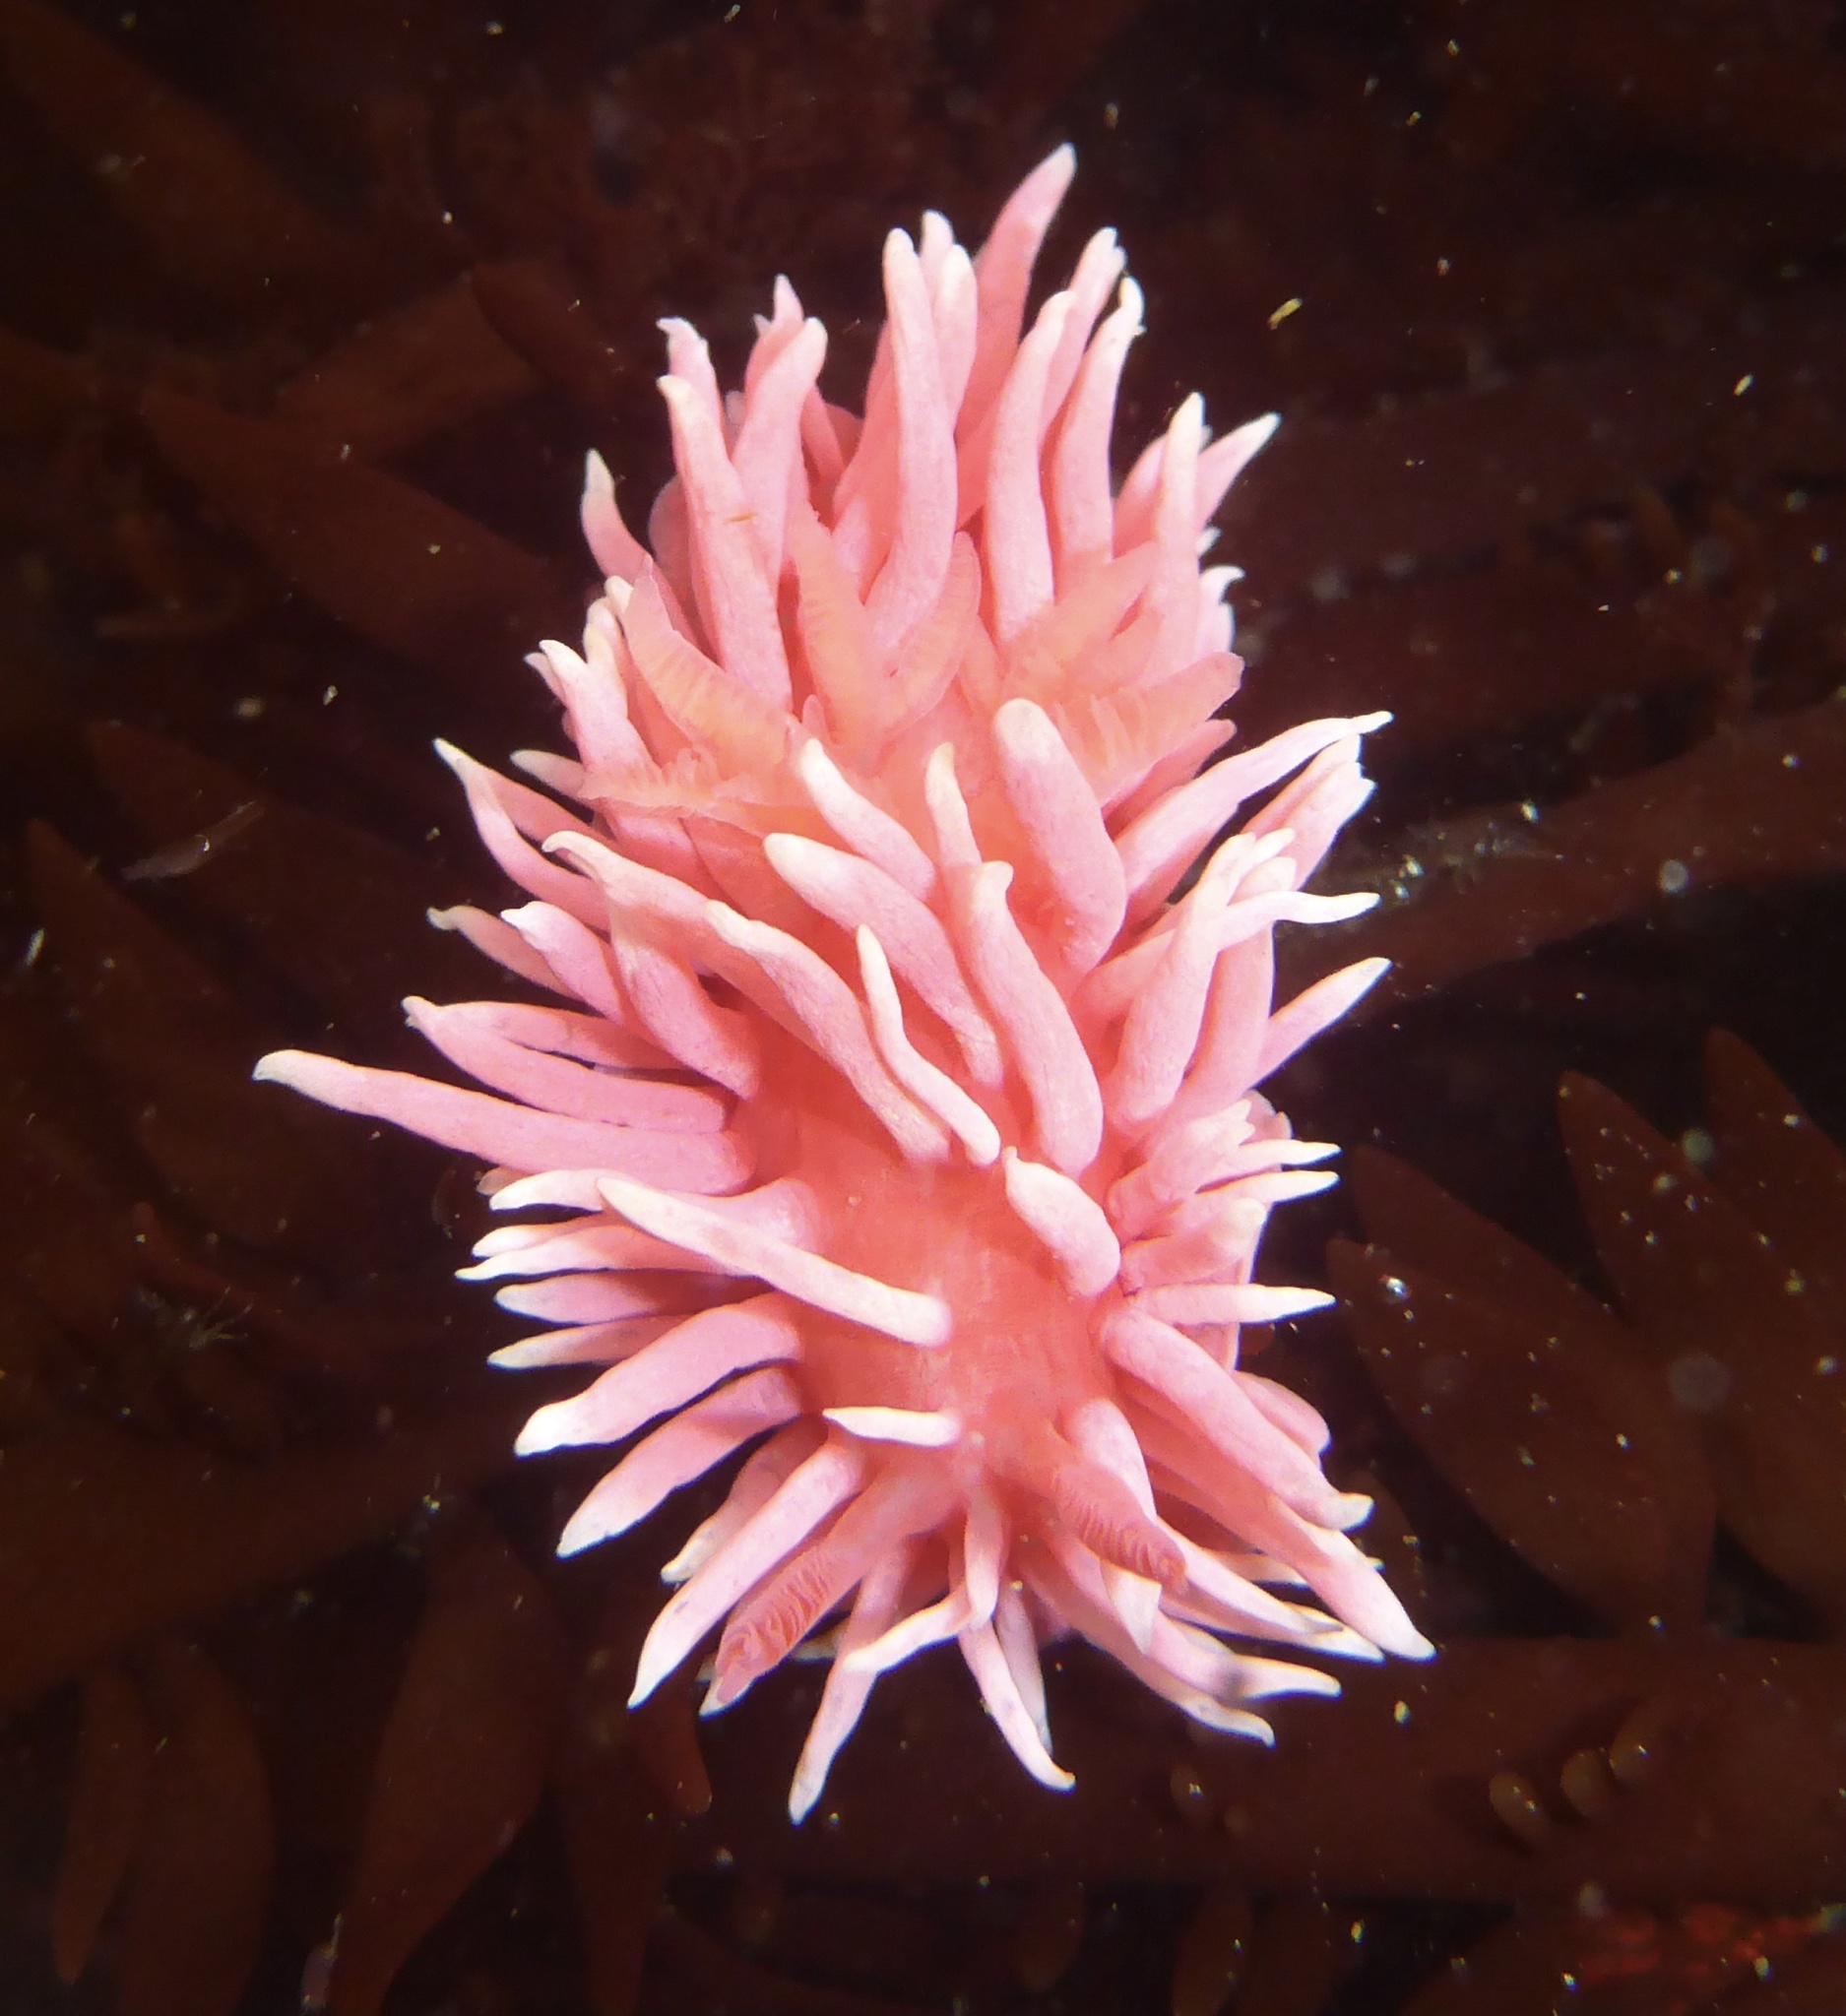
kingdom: Animalia
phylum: Mollusca
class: Gastropoda
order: Nudibranchia
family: Goniodorididae
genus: Okenia
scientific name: Okenia
